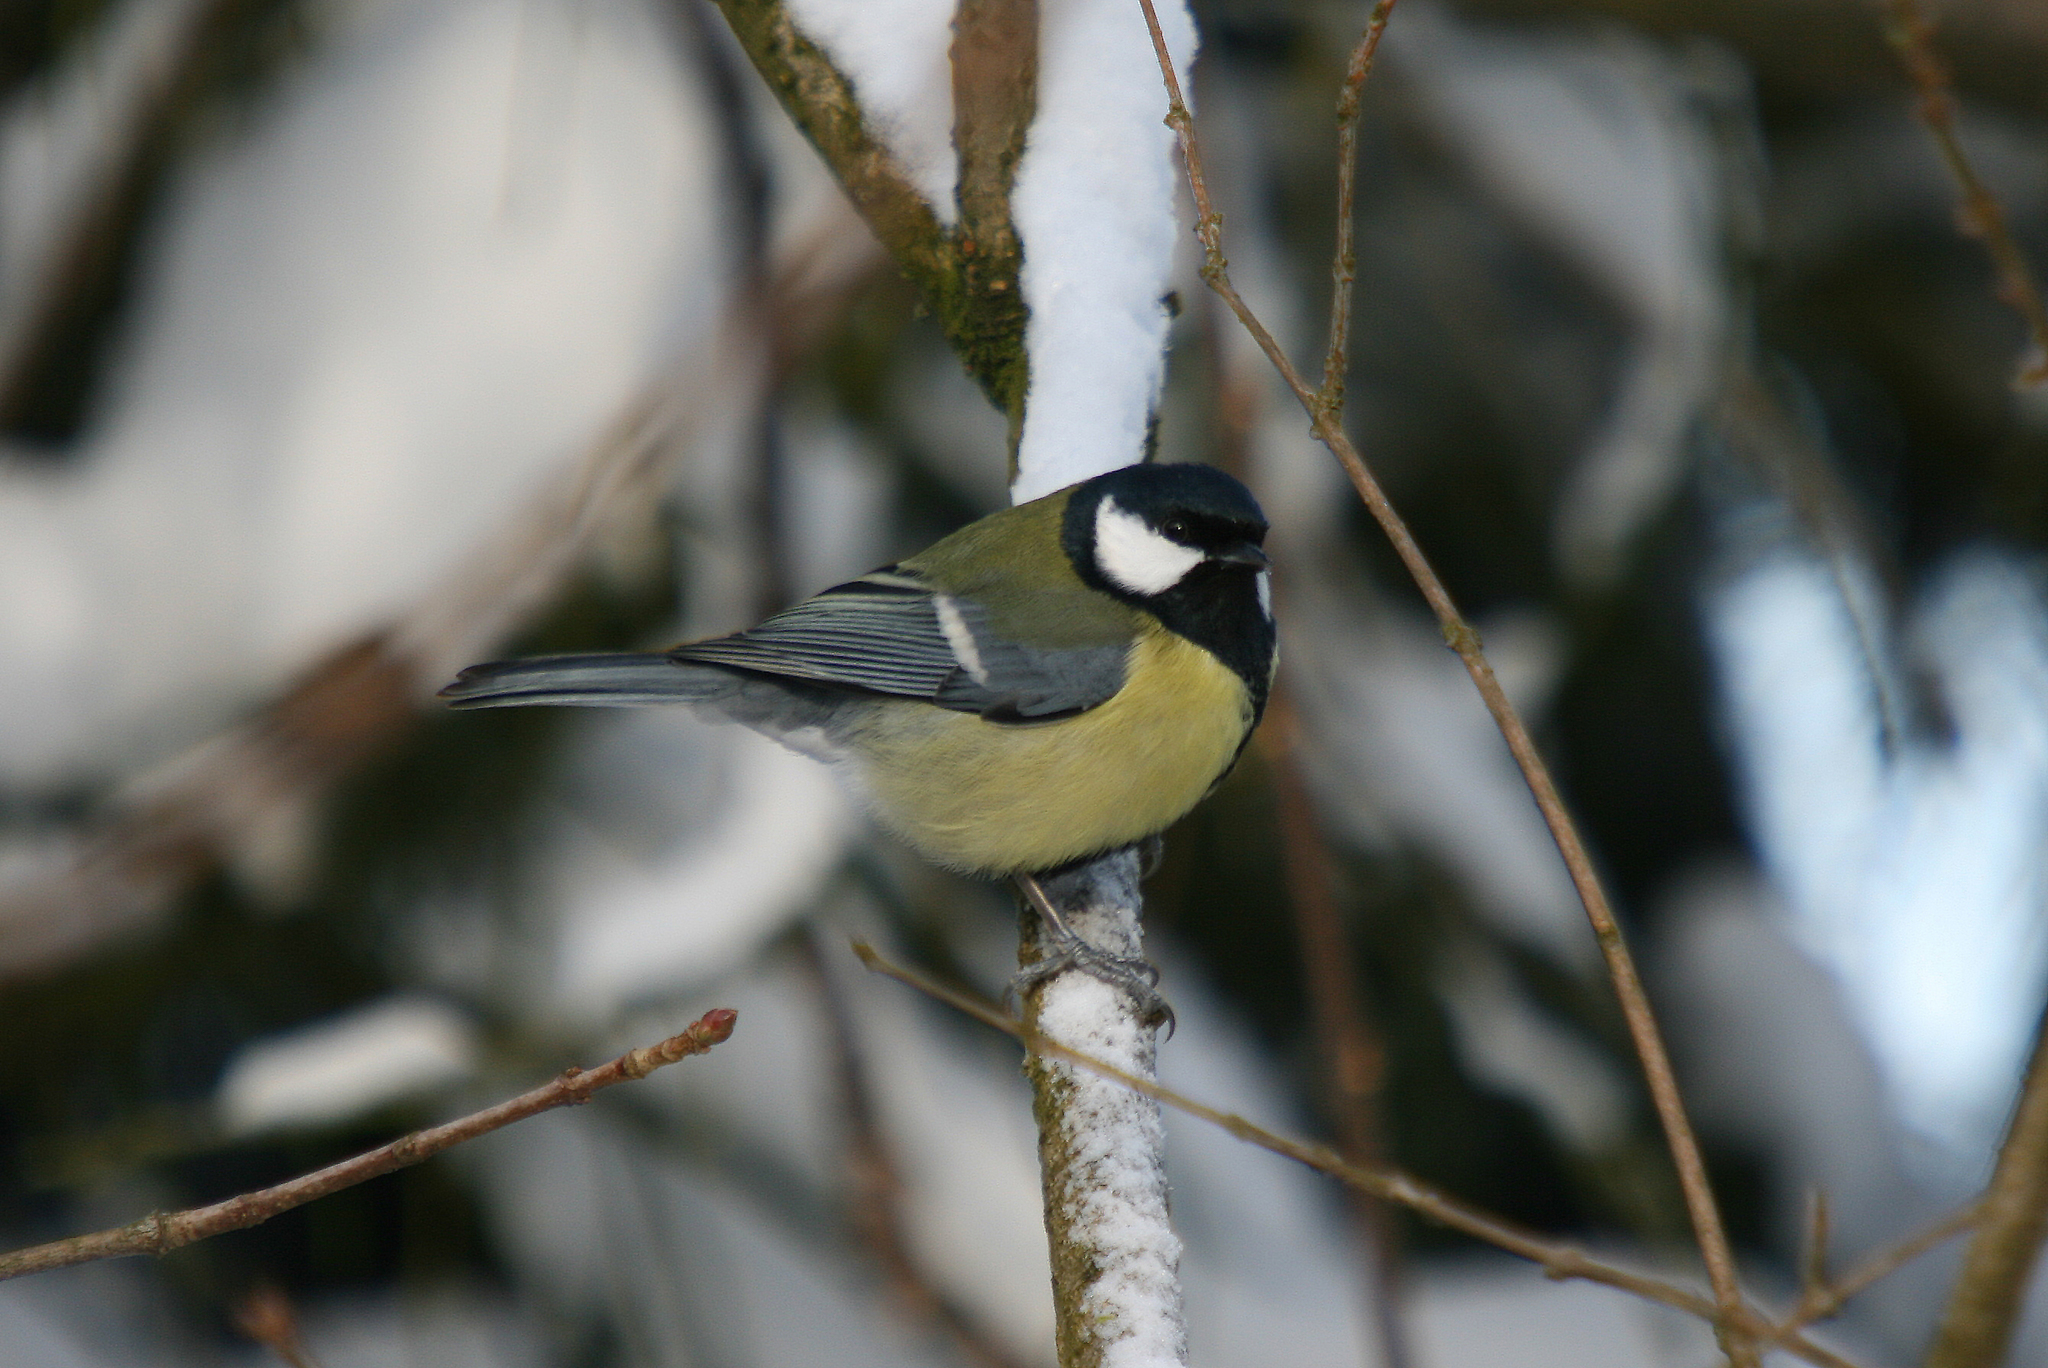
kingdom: Animalia
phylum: Chordata
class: Aves
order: Passeriformes
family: Paridae
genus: Parus
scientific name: Parus major
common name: Great tit
